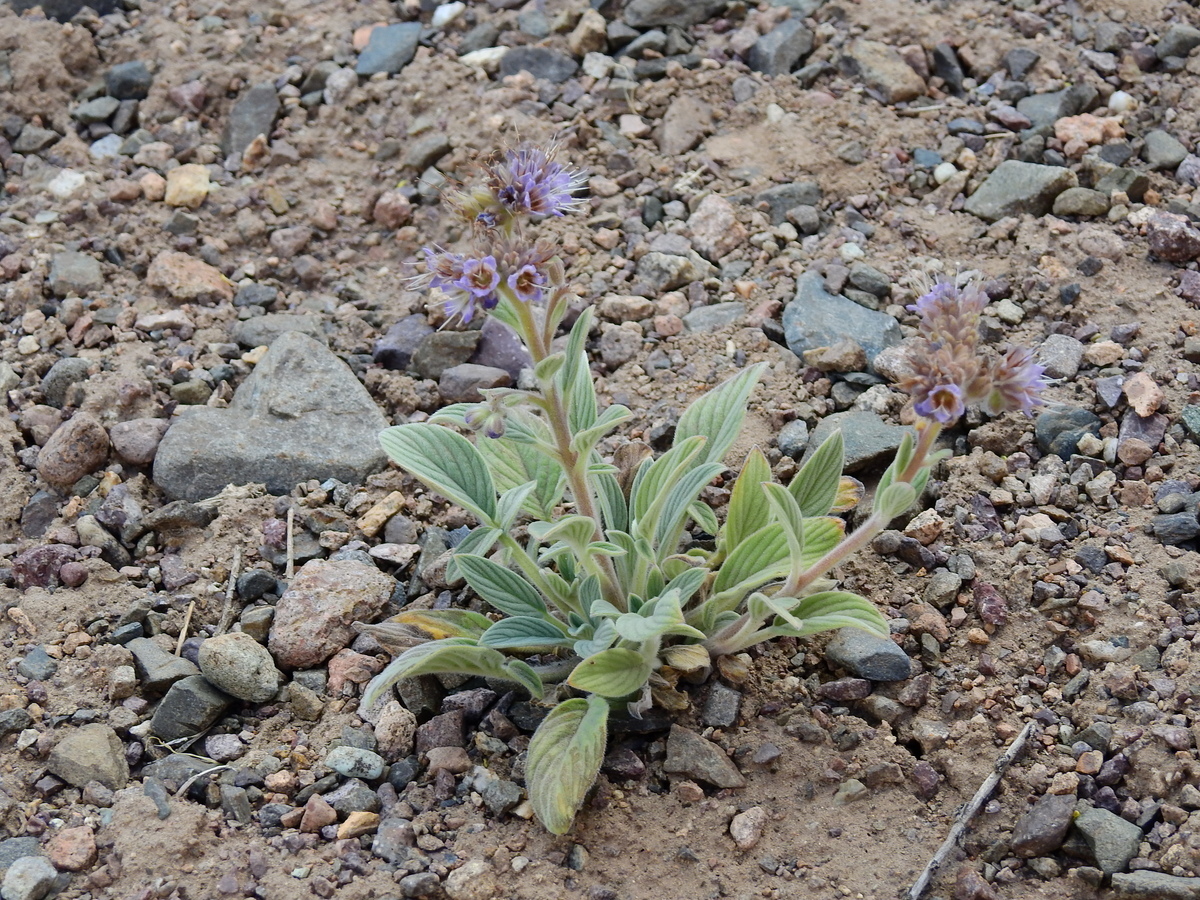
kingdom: Plantae
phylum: Tracheophyta
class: Magnoliopsida
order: Boraginales
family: Hydrophyllaceae
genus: Phacelia
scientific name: Phacelia secunda
